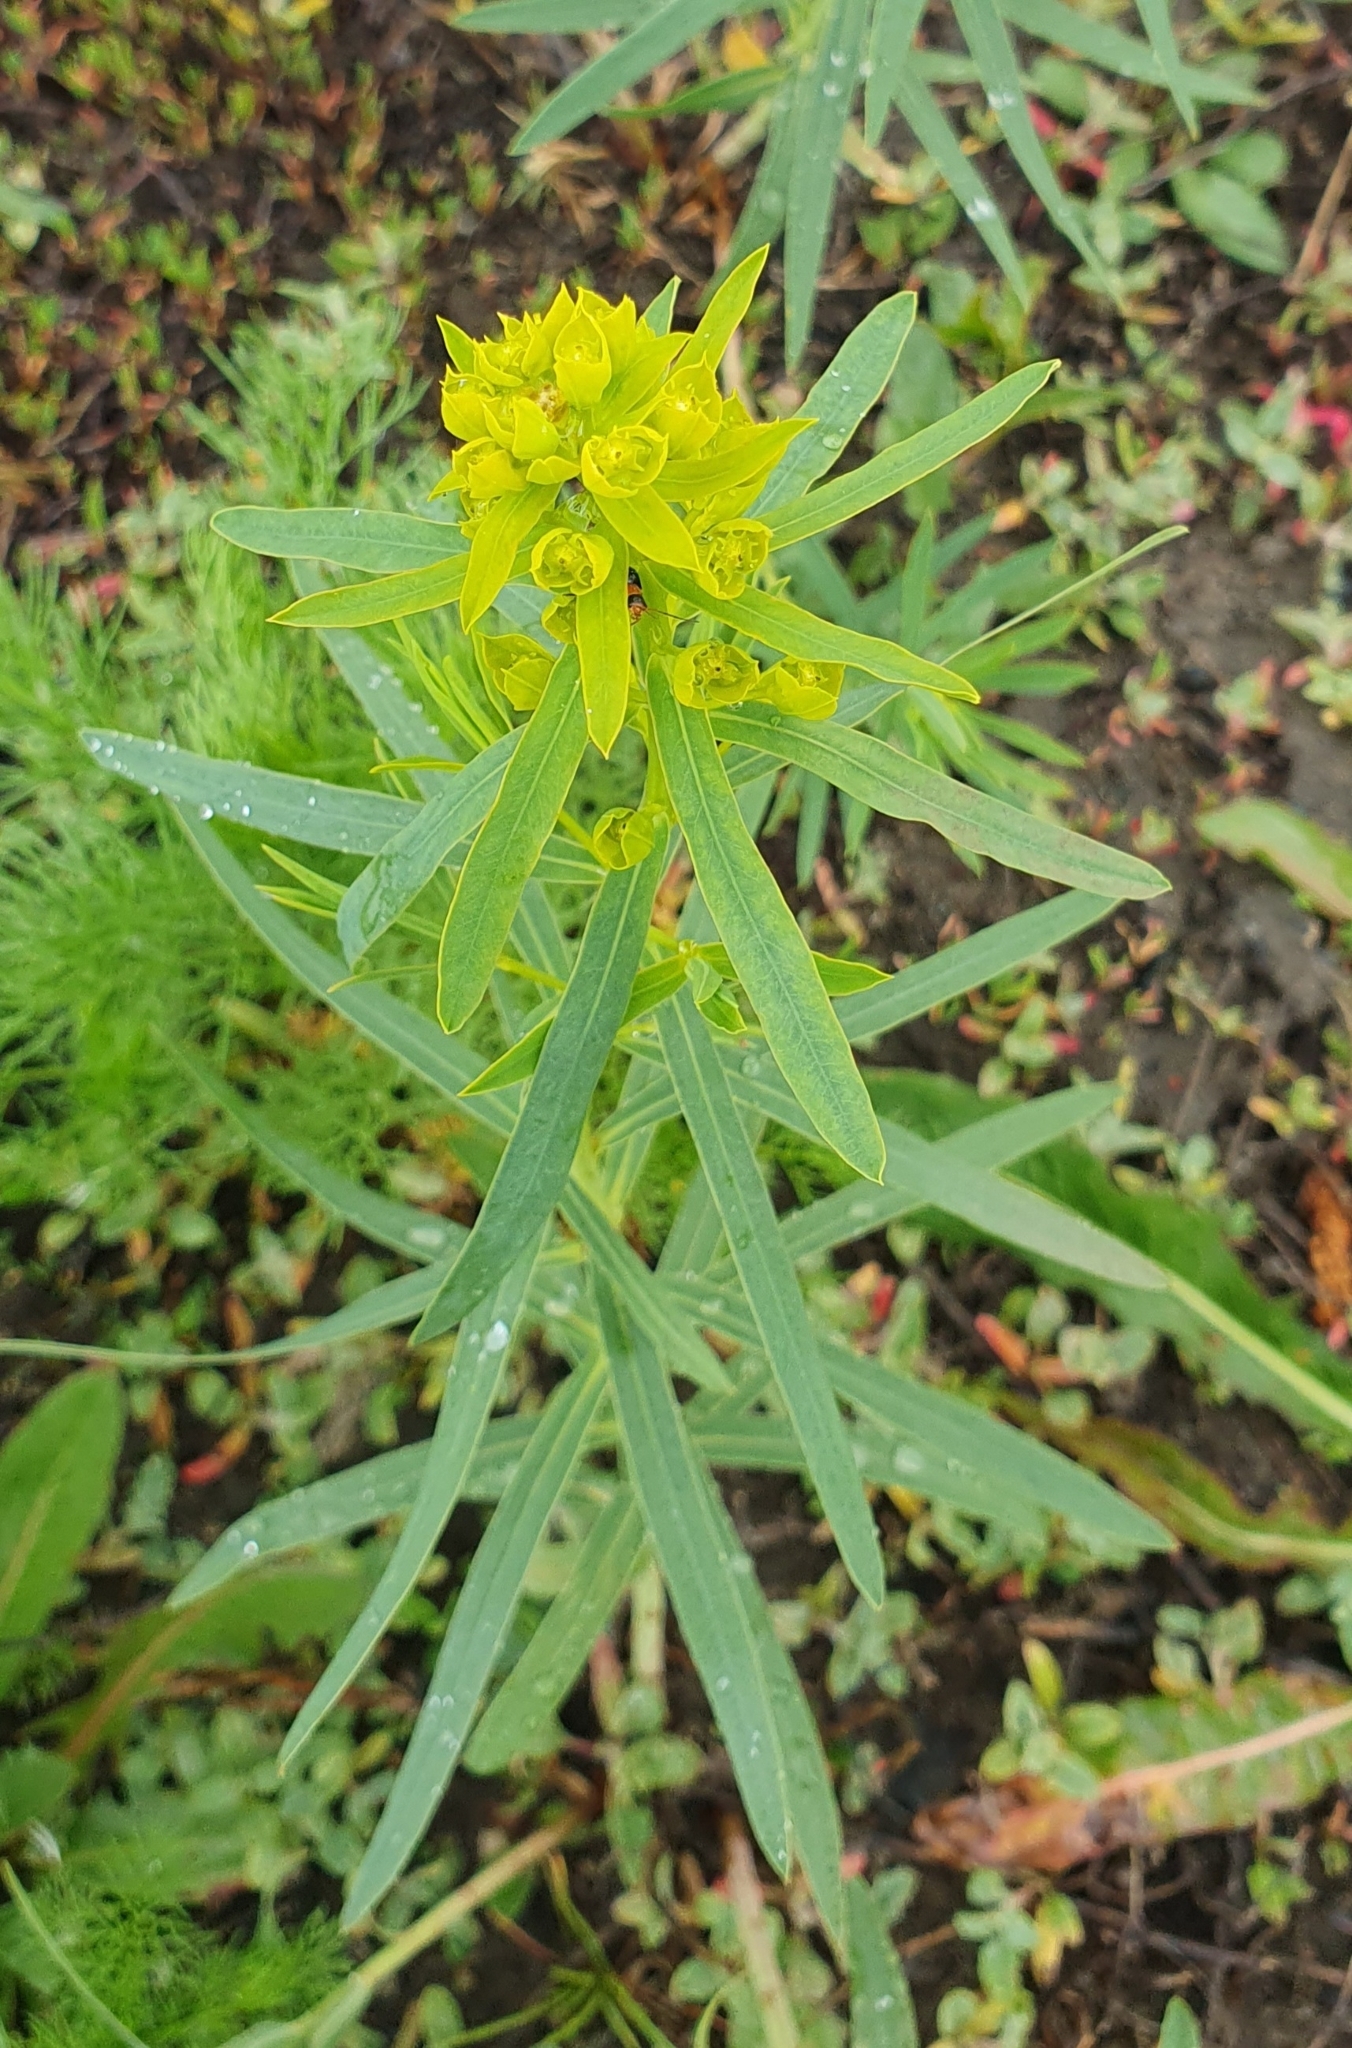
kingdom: Plantae
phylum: Tracheophyta
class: Magnoliopsida
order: Malpighiales
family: Euphorbiaceae
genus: Euphorbia
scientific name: Euphorbia virgata
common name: Leafy spurge
